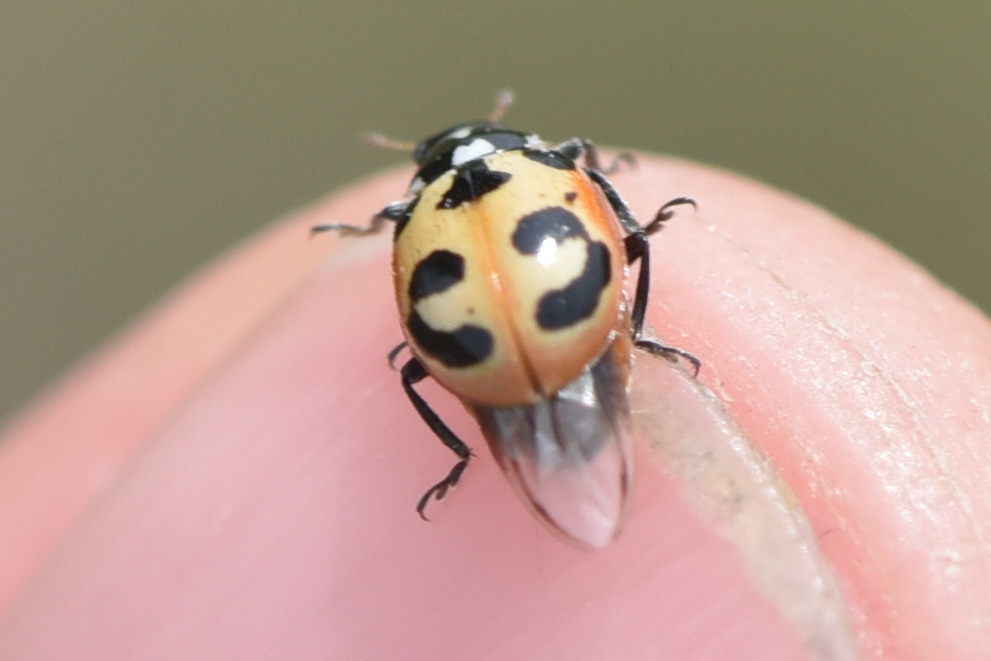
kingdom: Animalia
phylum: Arthropoda
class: Insecta
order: Coleoptera
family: Coccinellidae
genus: Hippodamia
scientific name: Hippodamia parenthesis
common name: Parenthesis lady beetle
